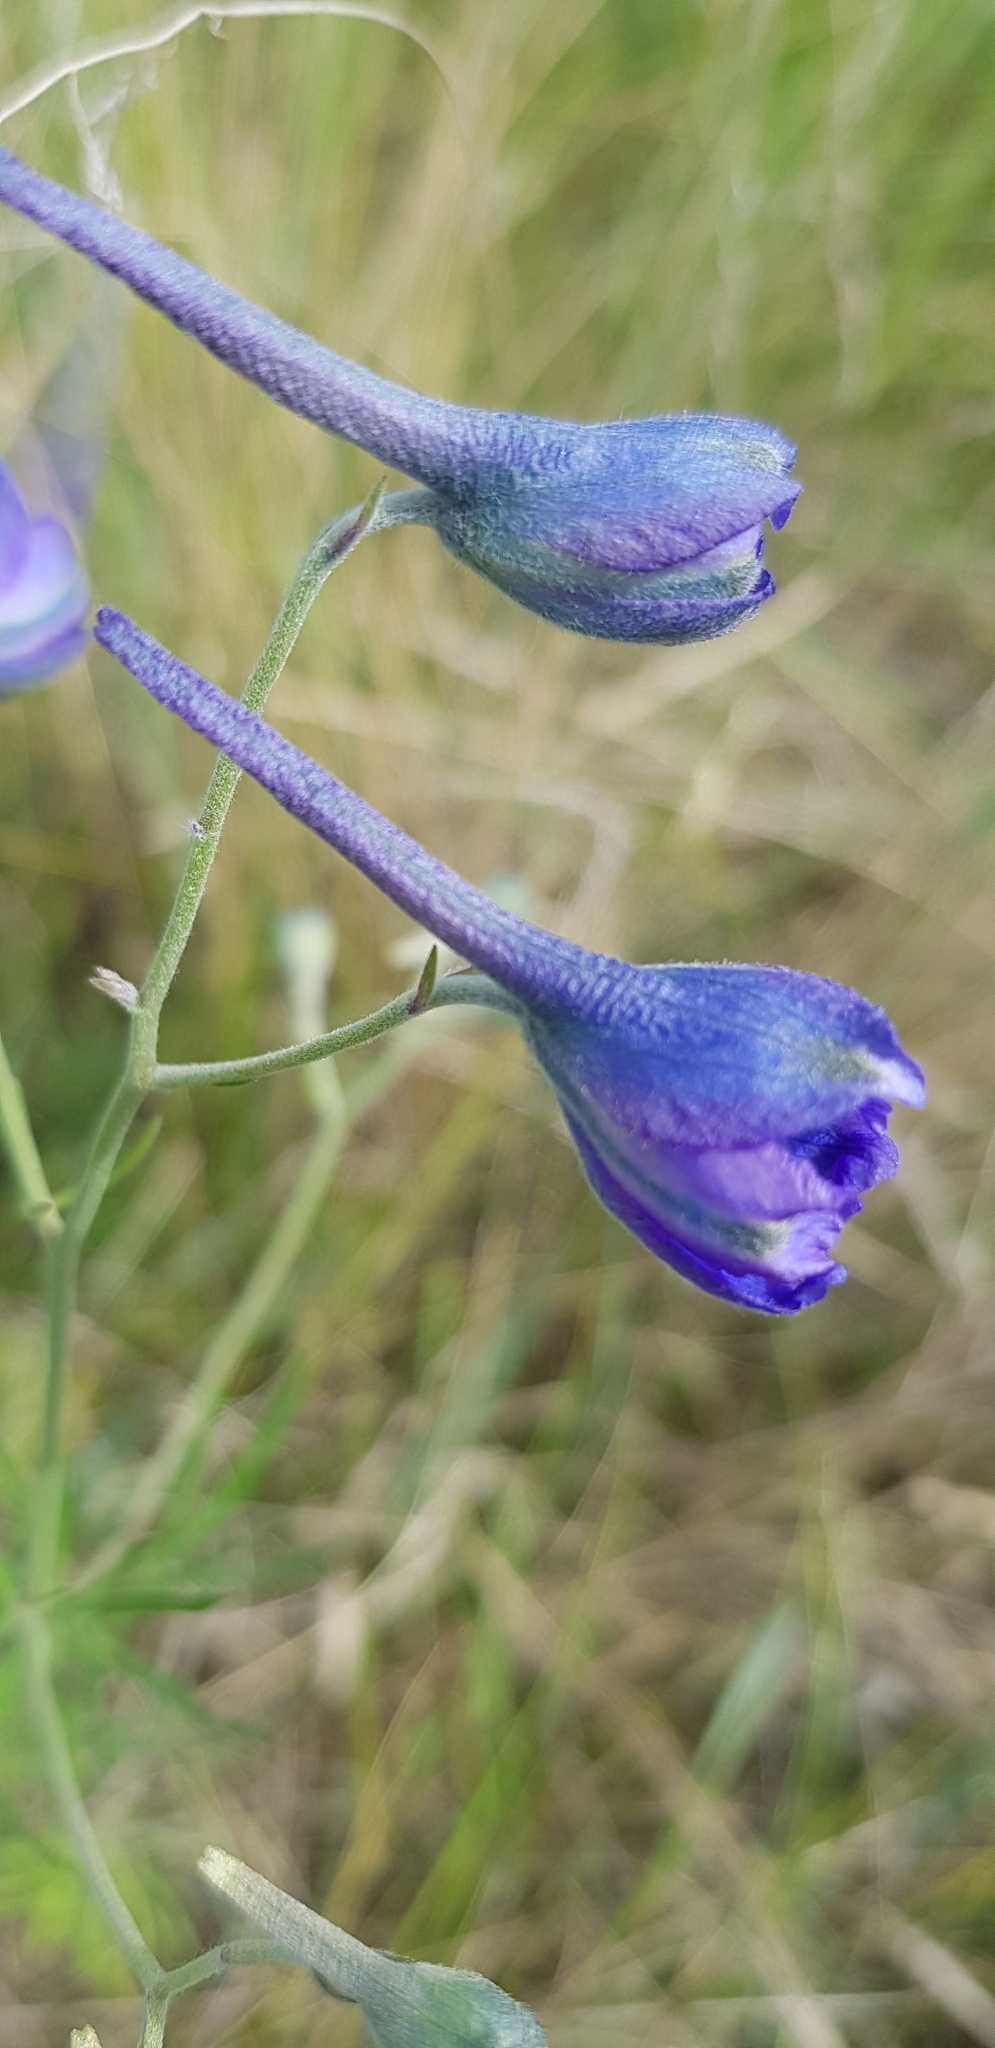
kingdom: Plantae
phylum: Tracheophyta
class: Magnoliopsida
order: Ranunculales
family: Ranunculaceae
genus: Delphinium
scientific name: Delphinium grandiflorum
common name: Siberian larkspur
